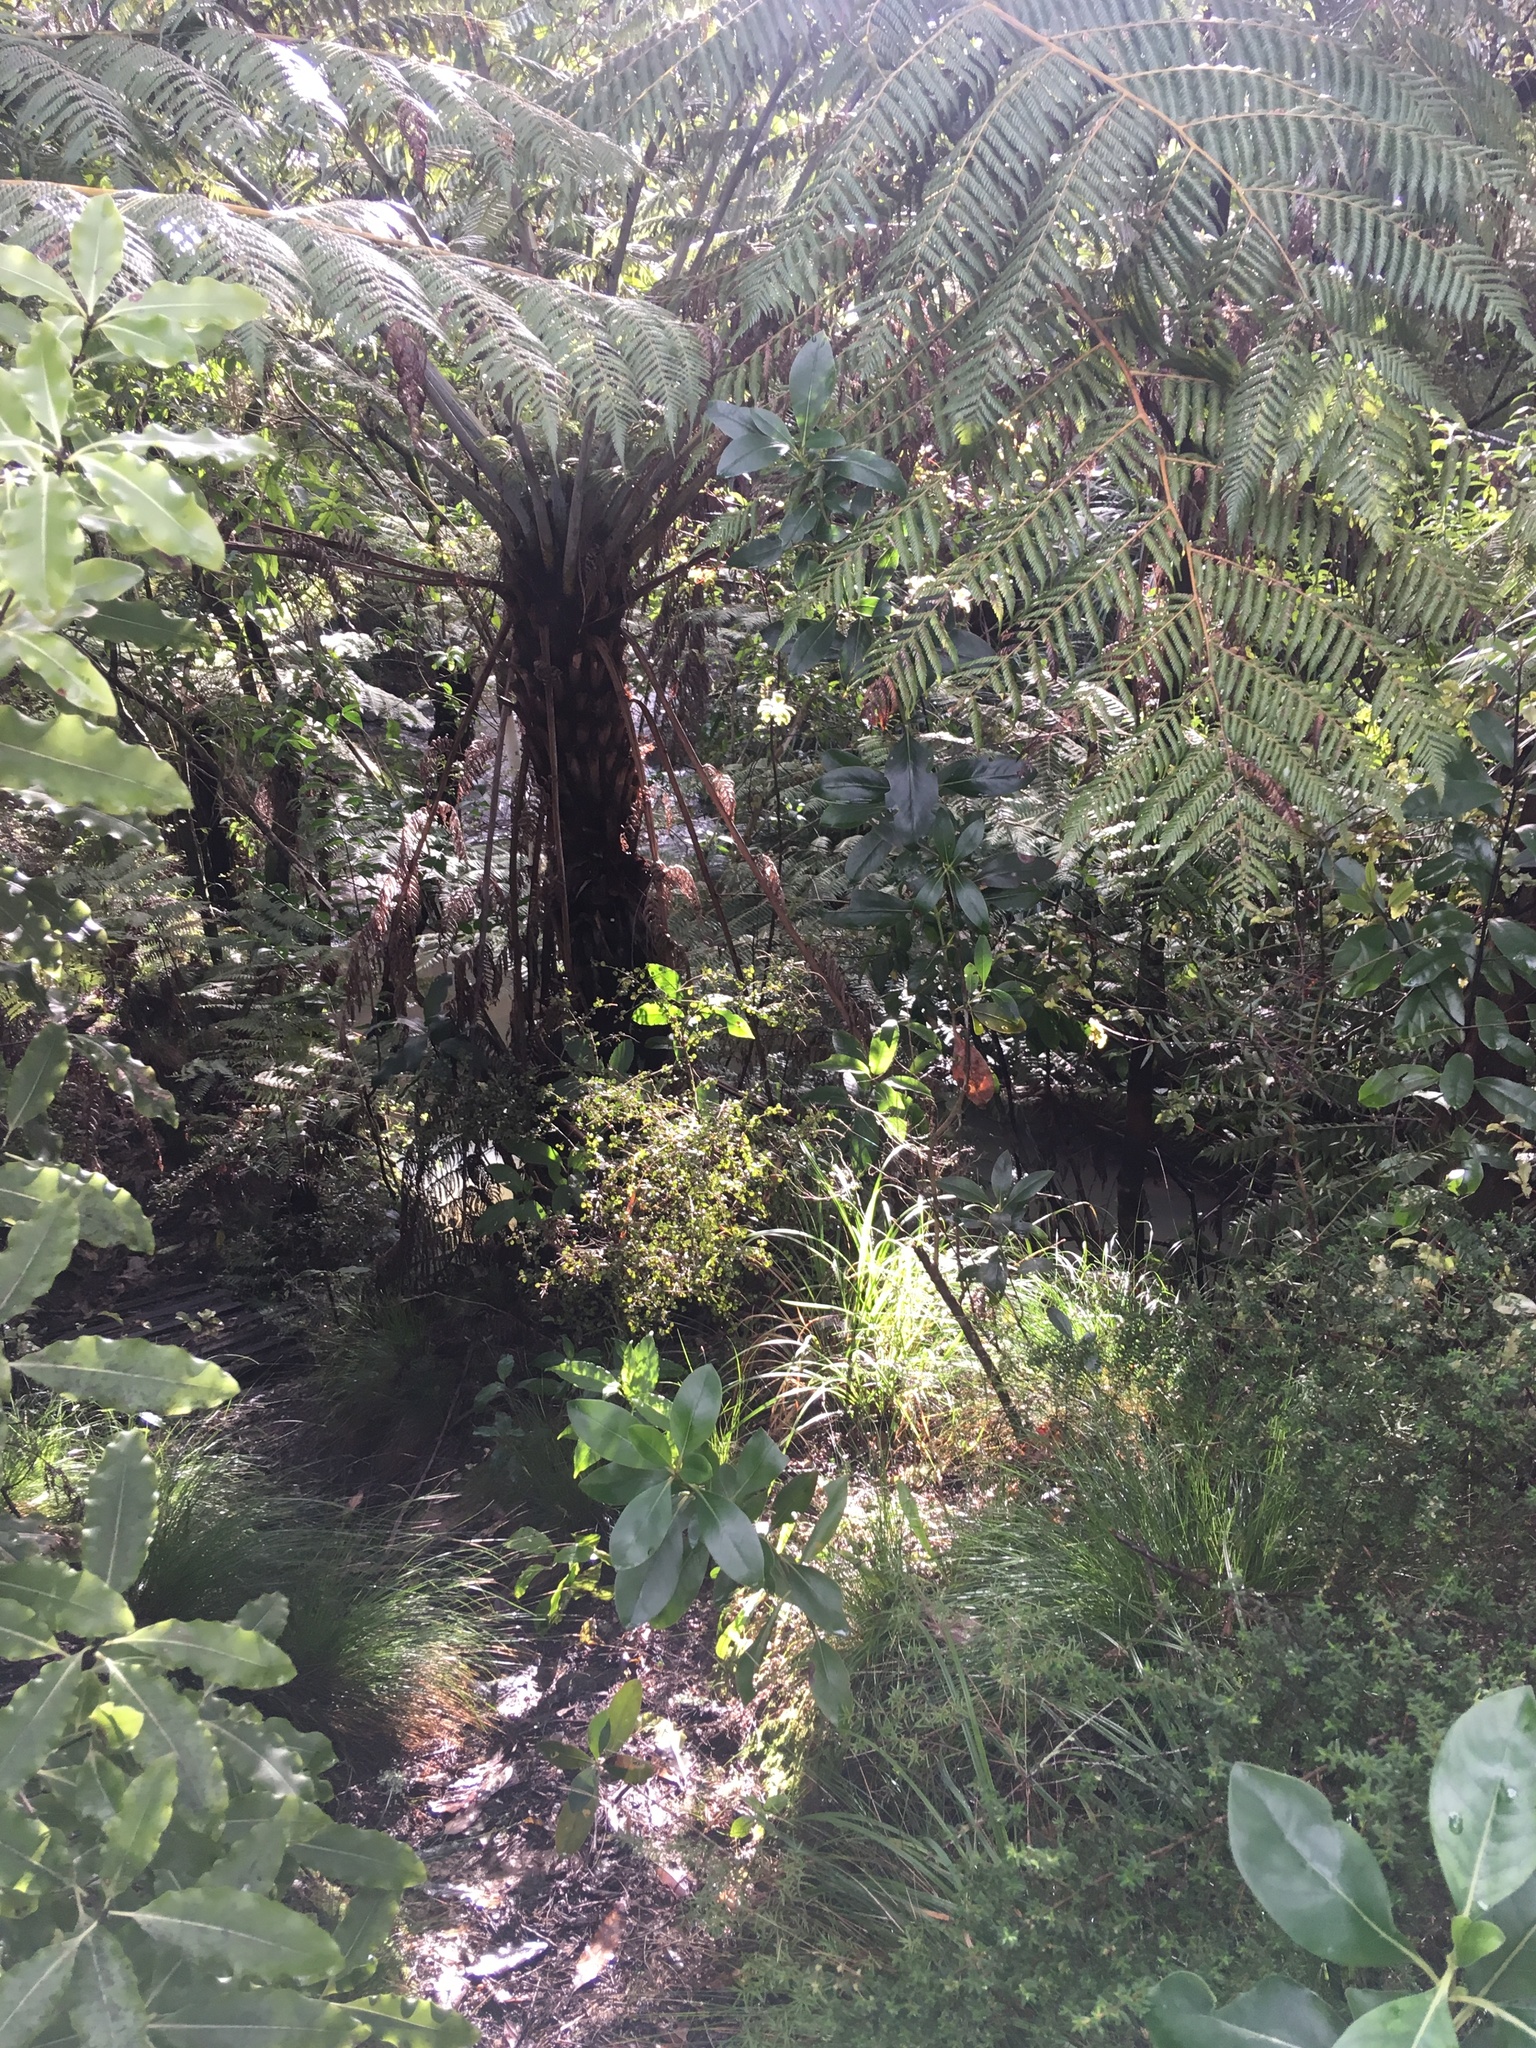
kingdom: Plantae
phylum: Tracheophyta
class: Polypodiopsida
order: Cyatheales
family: Cyatheaceae
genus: Alsophila
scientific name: Alsophila dealbata
